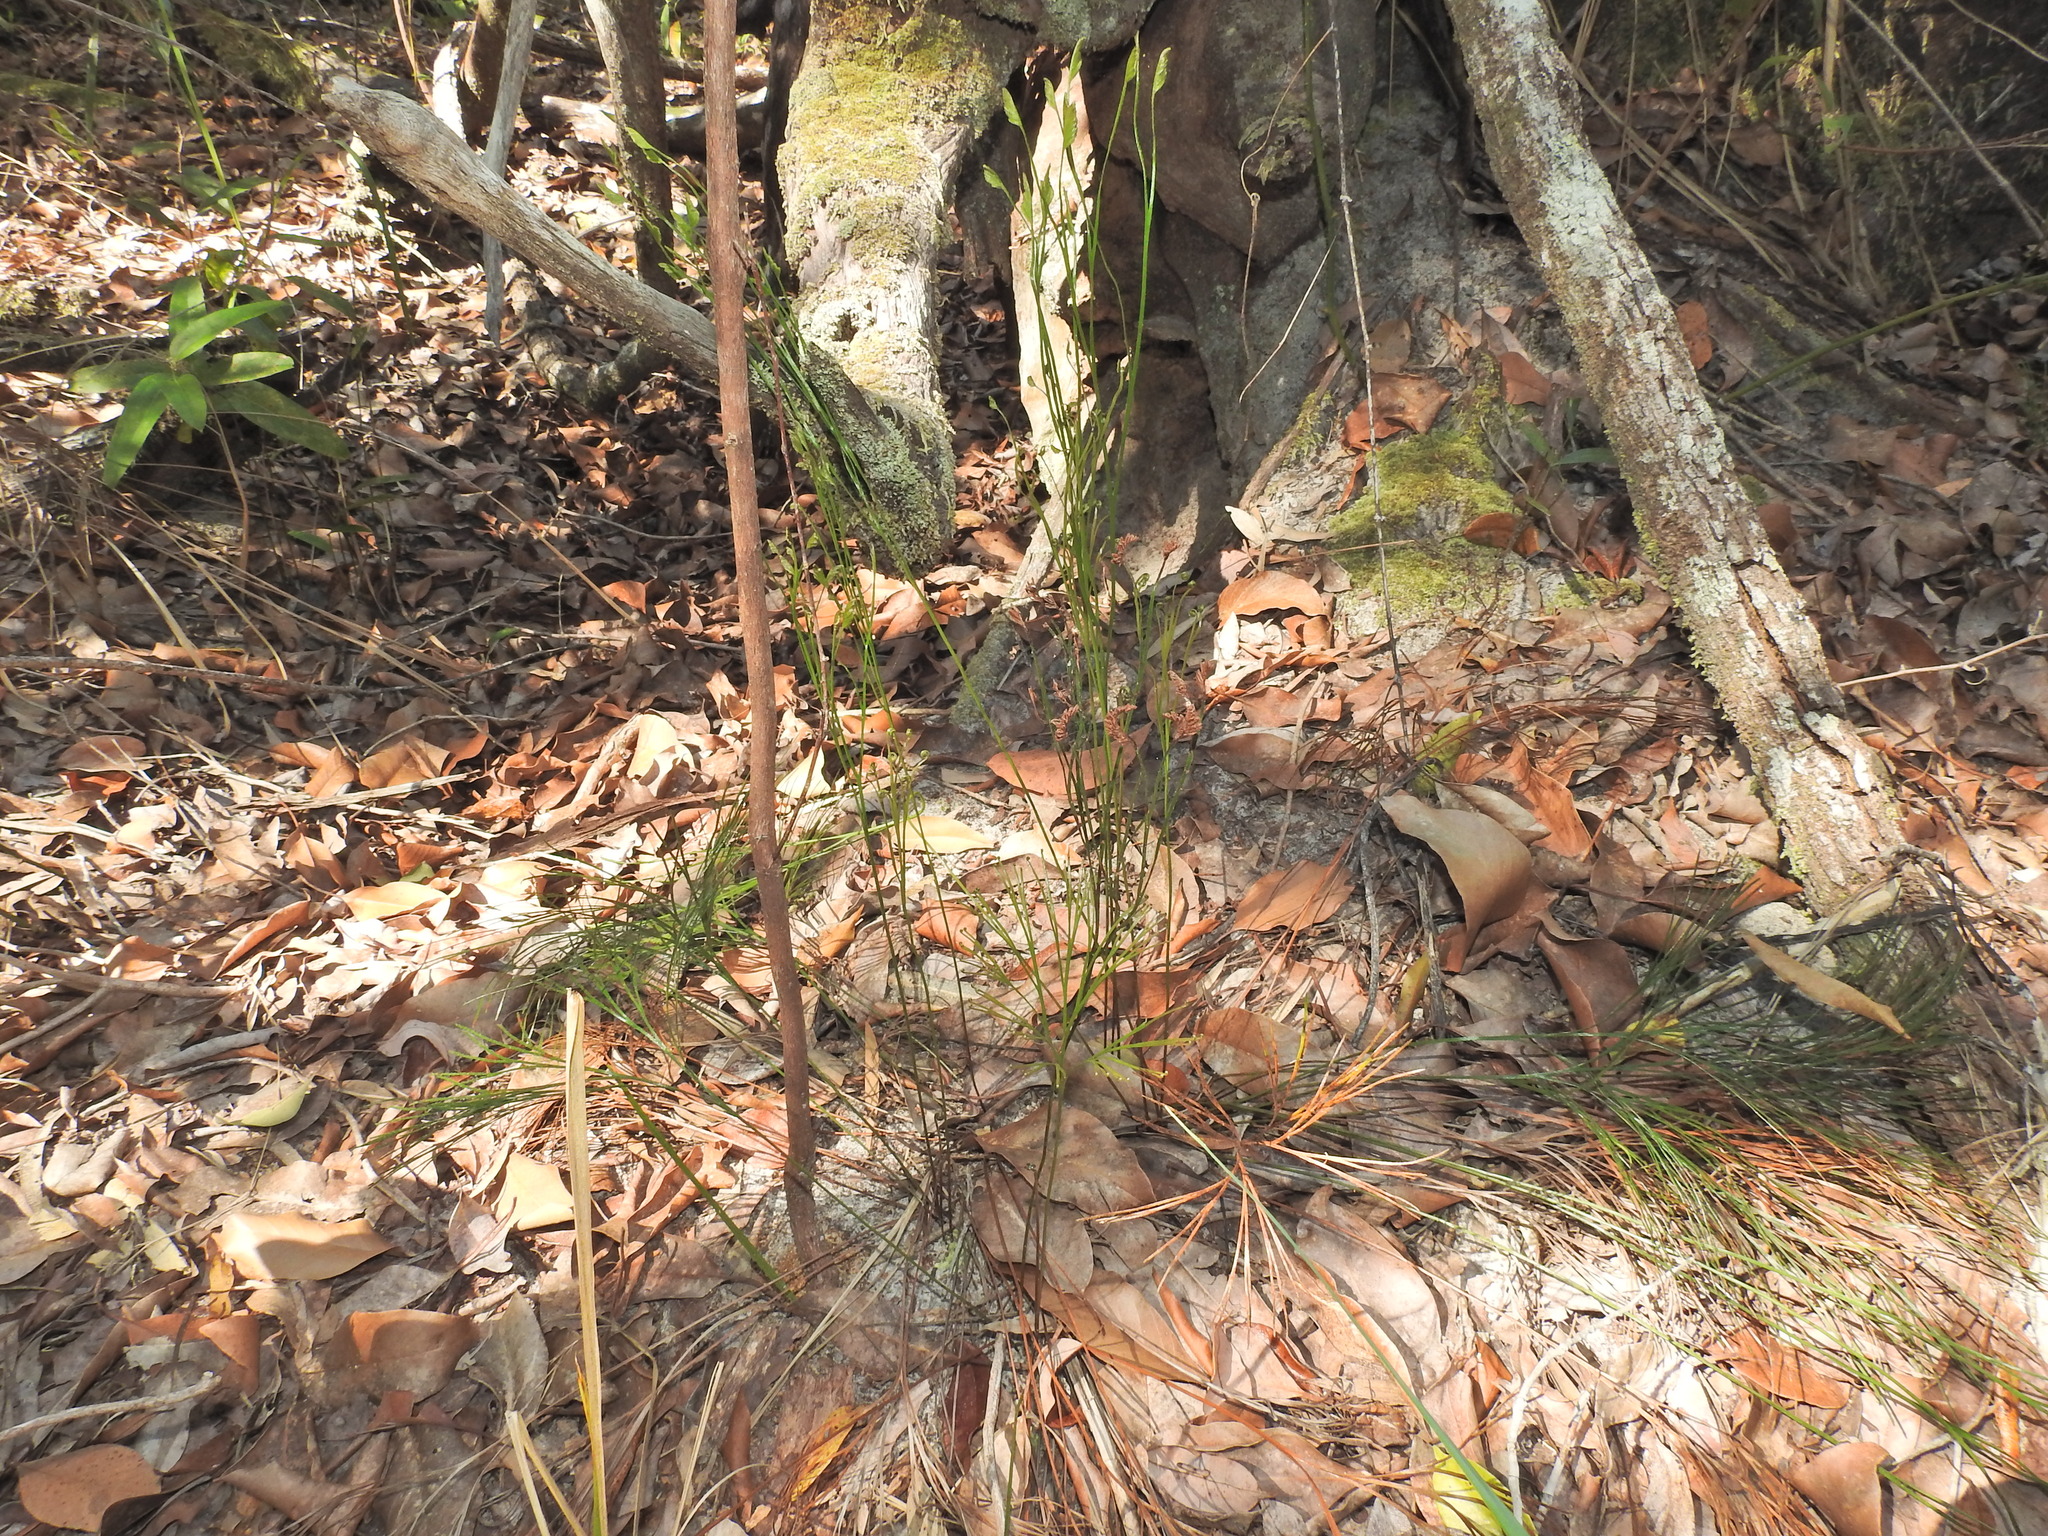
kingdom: Plantae
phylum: Tracheophyta
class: Polypodiopsida
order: Schizaeales
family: Schizaeaceae
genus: Schizaea
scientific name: Schizaea bifida
